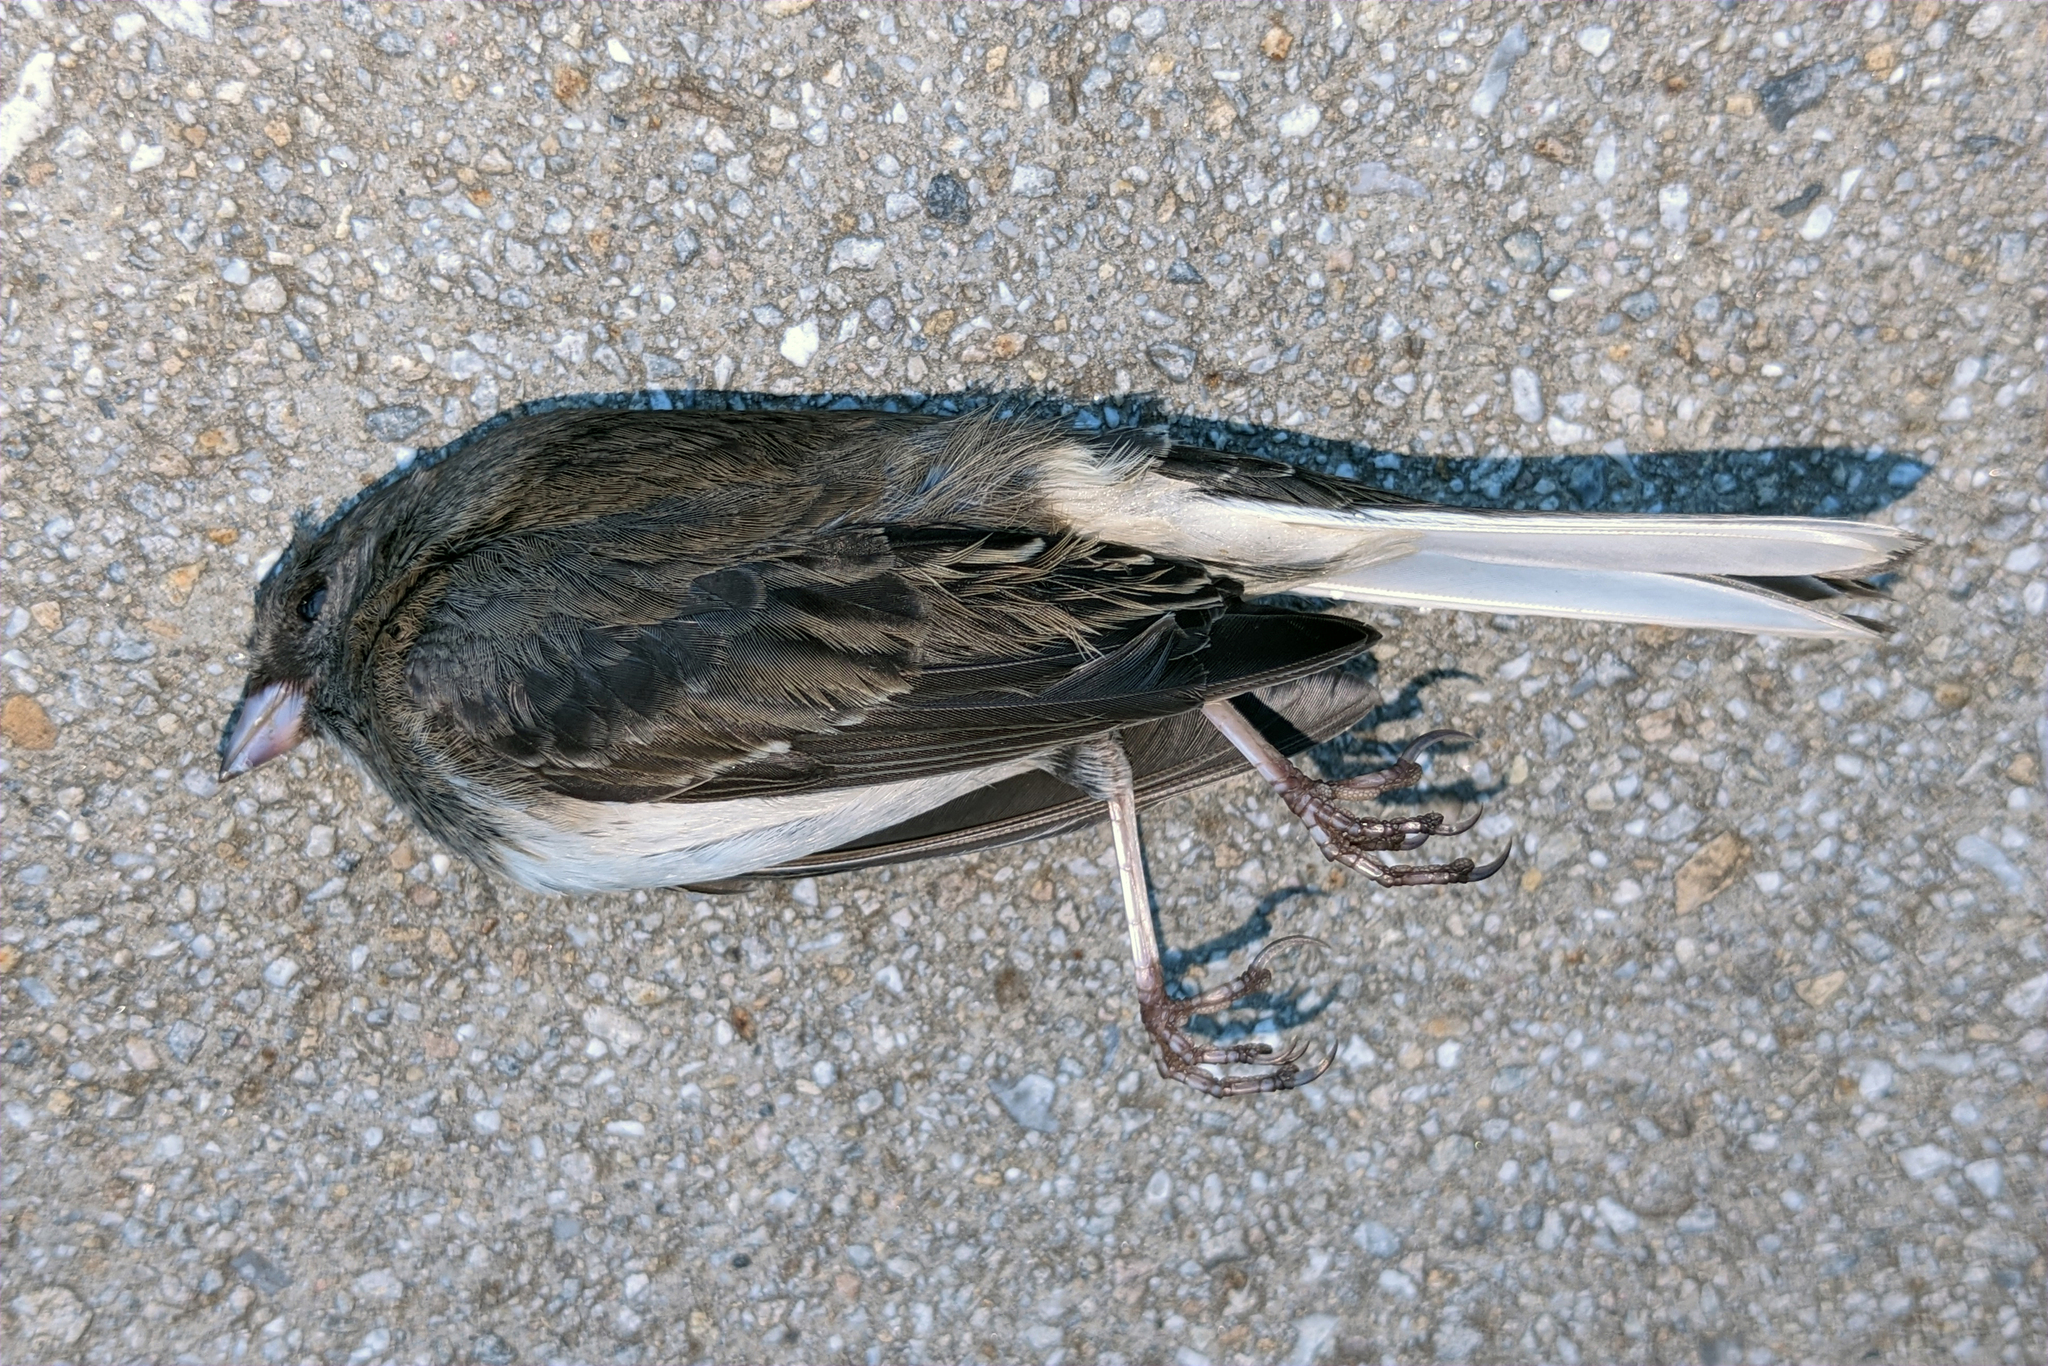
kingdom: Animalia
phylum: Chordata
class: Aves
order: Passeriformes
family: Passerellidae
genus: Junco
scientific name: Junco hyemalis
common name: Dark-eyed junco
